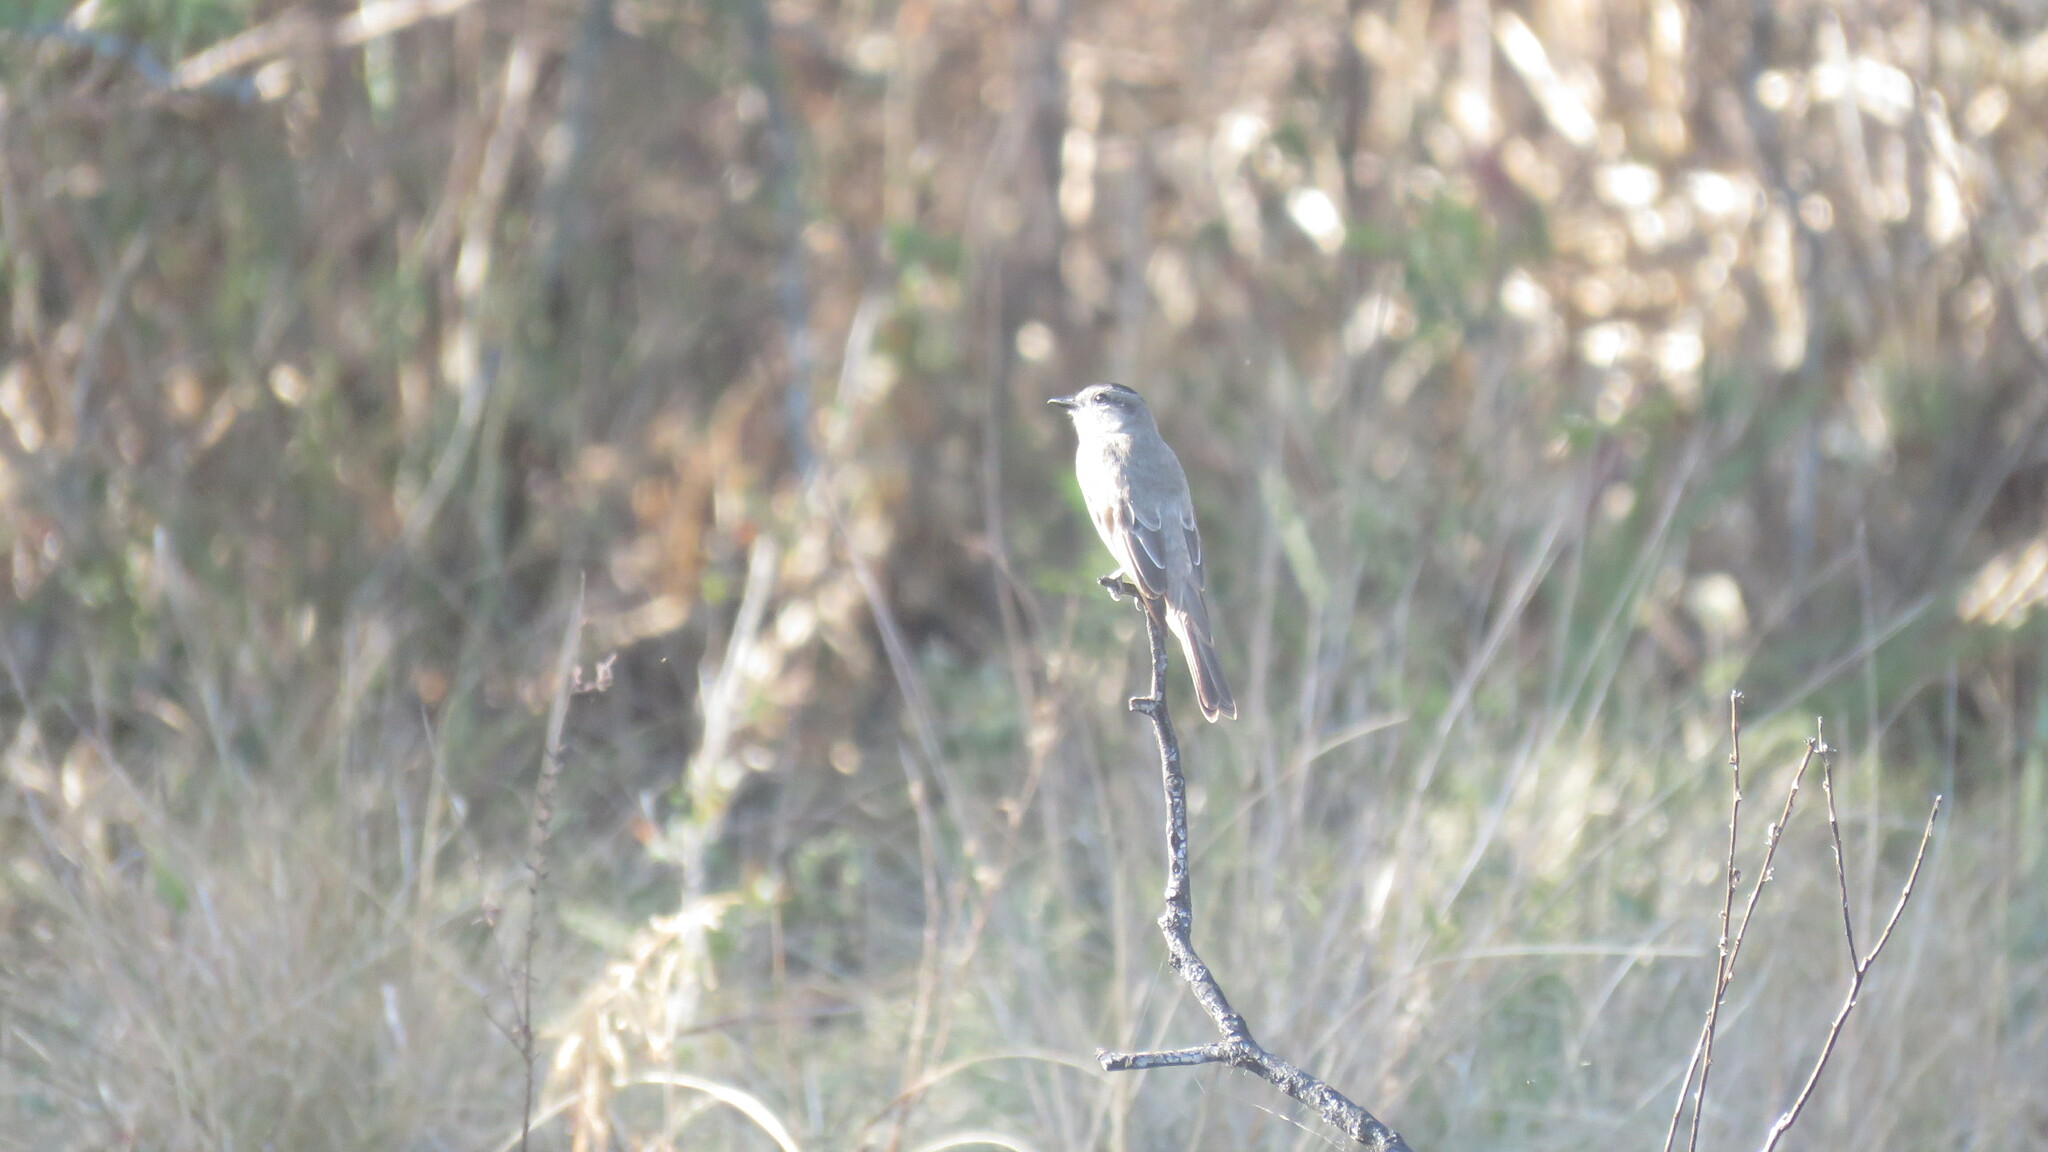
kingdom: Animalia
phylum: Chordata
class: Aves
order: Passeriformes
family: Tyrannidae
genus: Empidonomus
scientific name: Empidonomus aurantioatrocristatus
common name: Crowned slaty flycatcher
